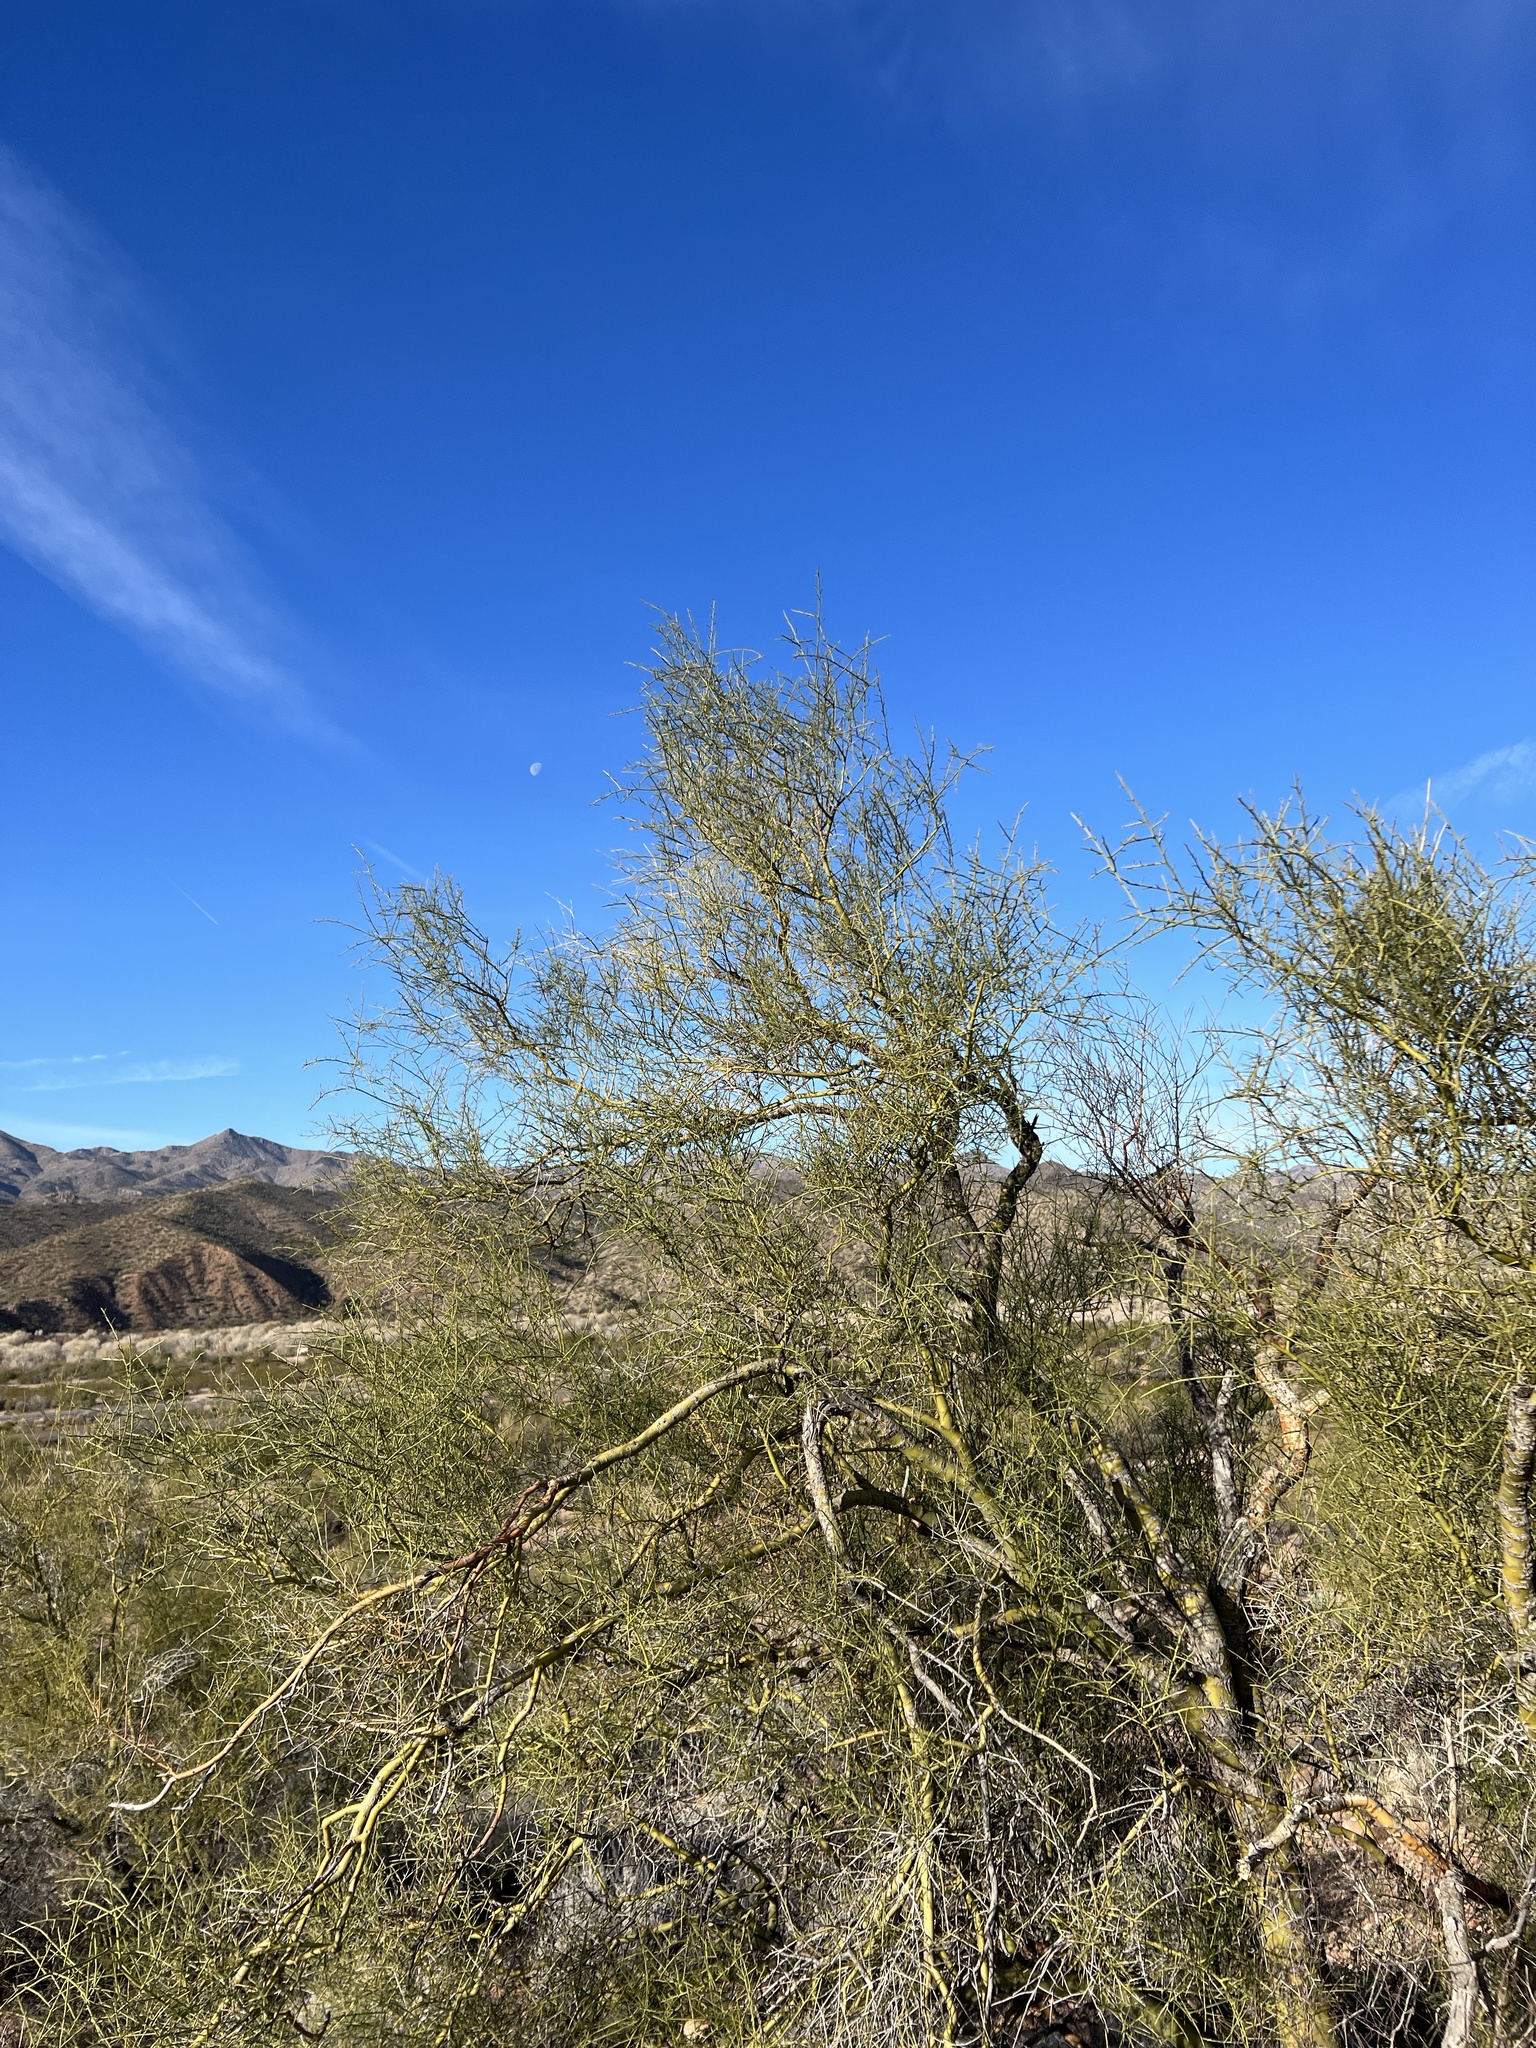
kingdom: Plantae
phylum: Tracheophyta
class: Magnoliopsida
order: Fabales
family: Fabaceae
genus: Parkinsonia
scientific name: Parkinsonia microphylla
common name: Yellow paloverde
